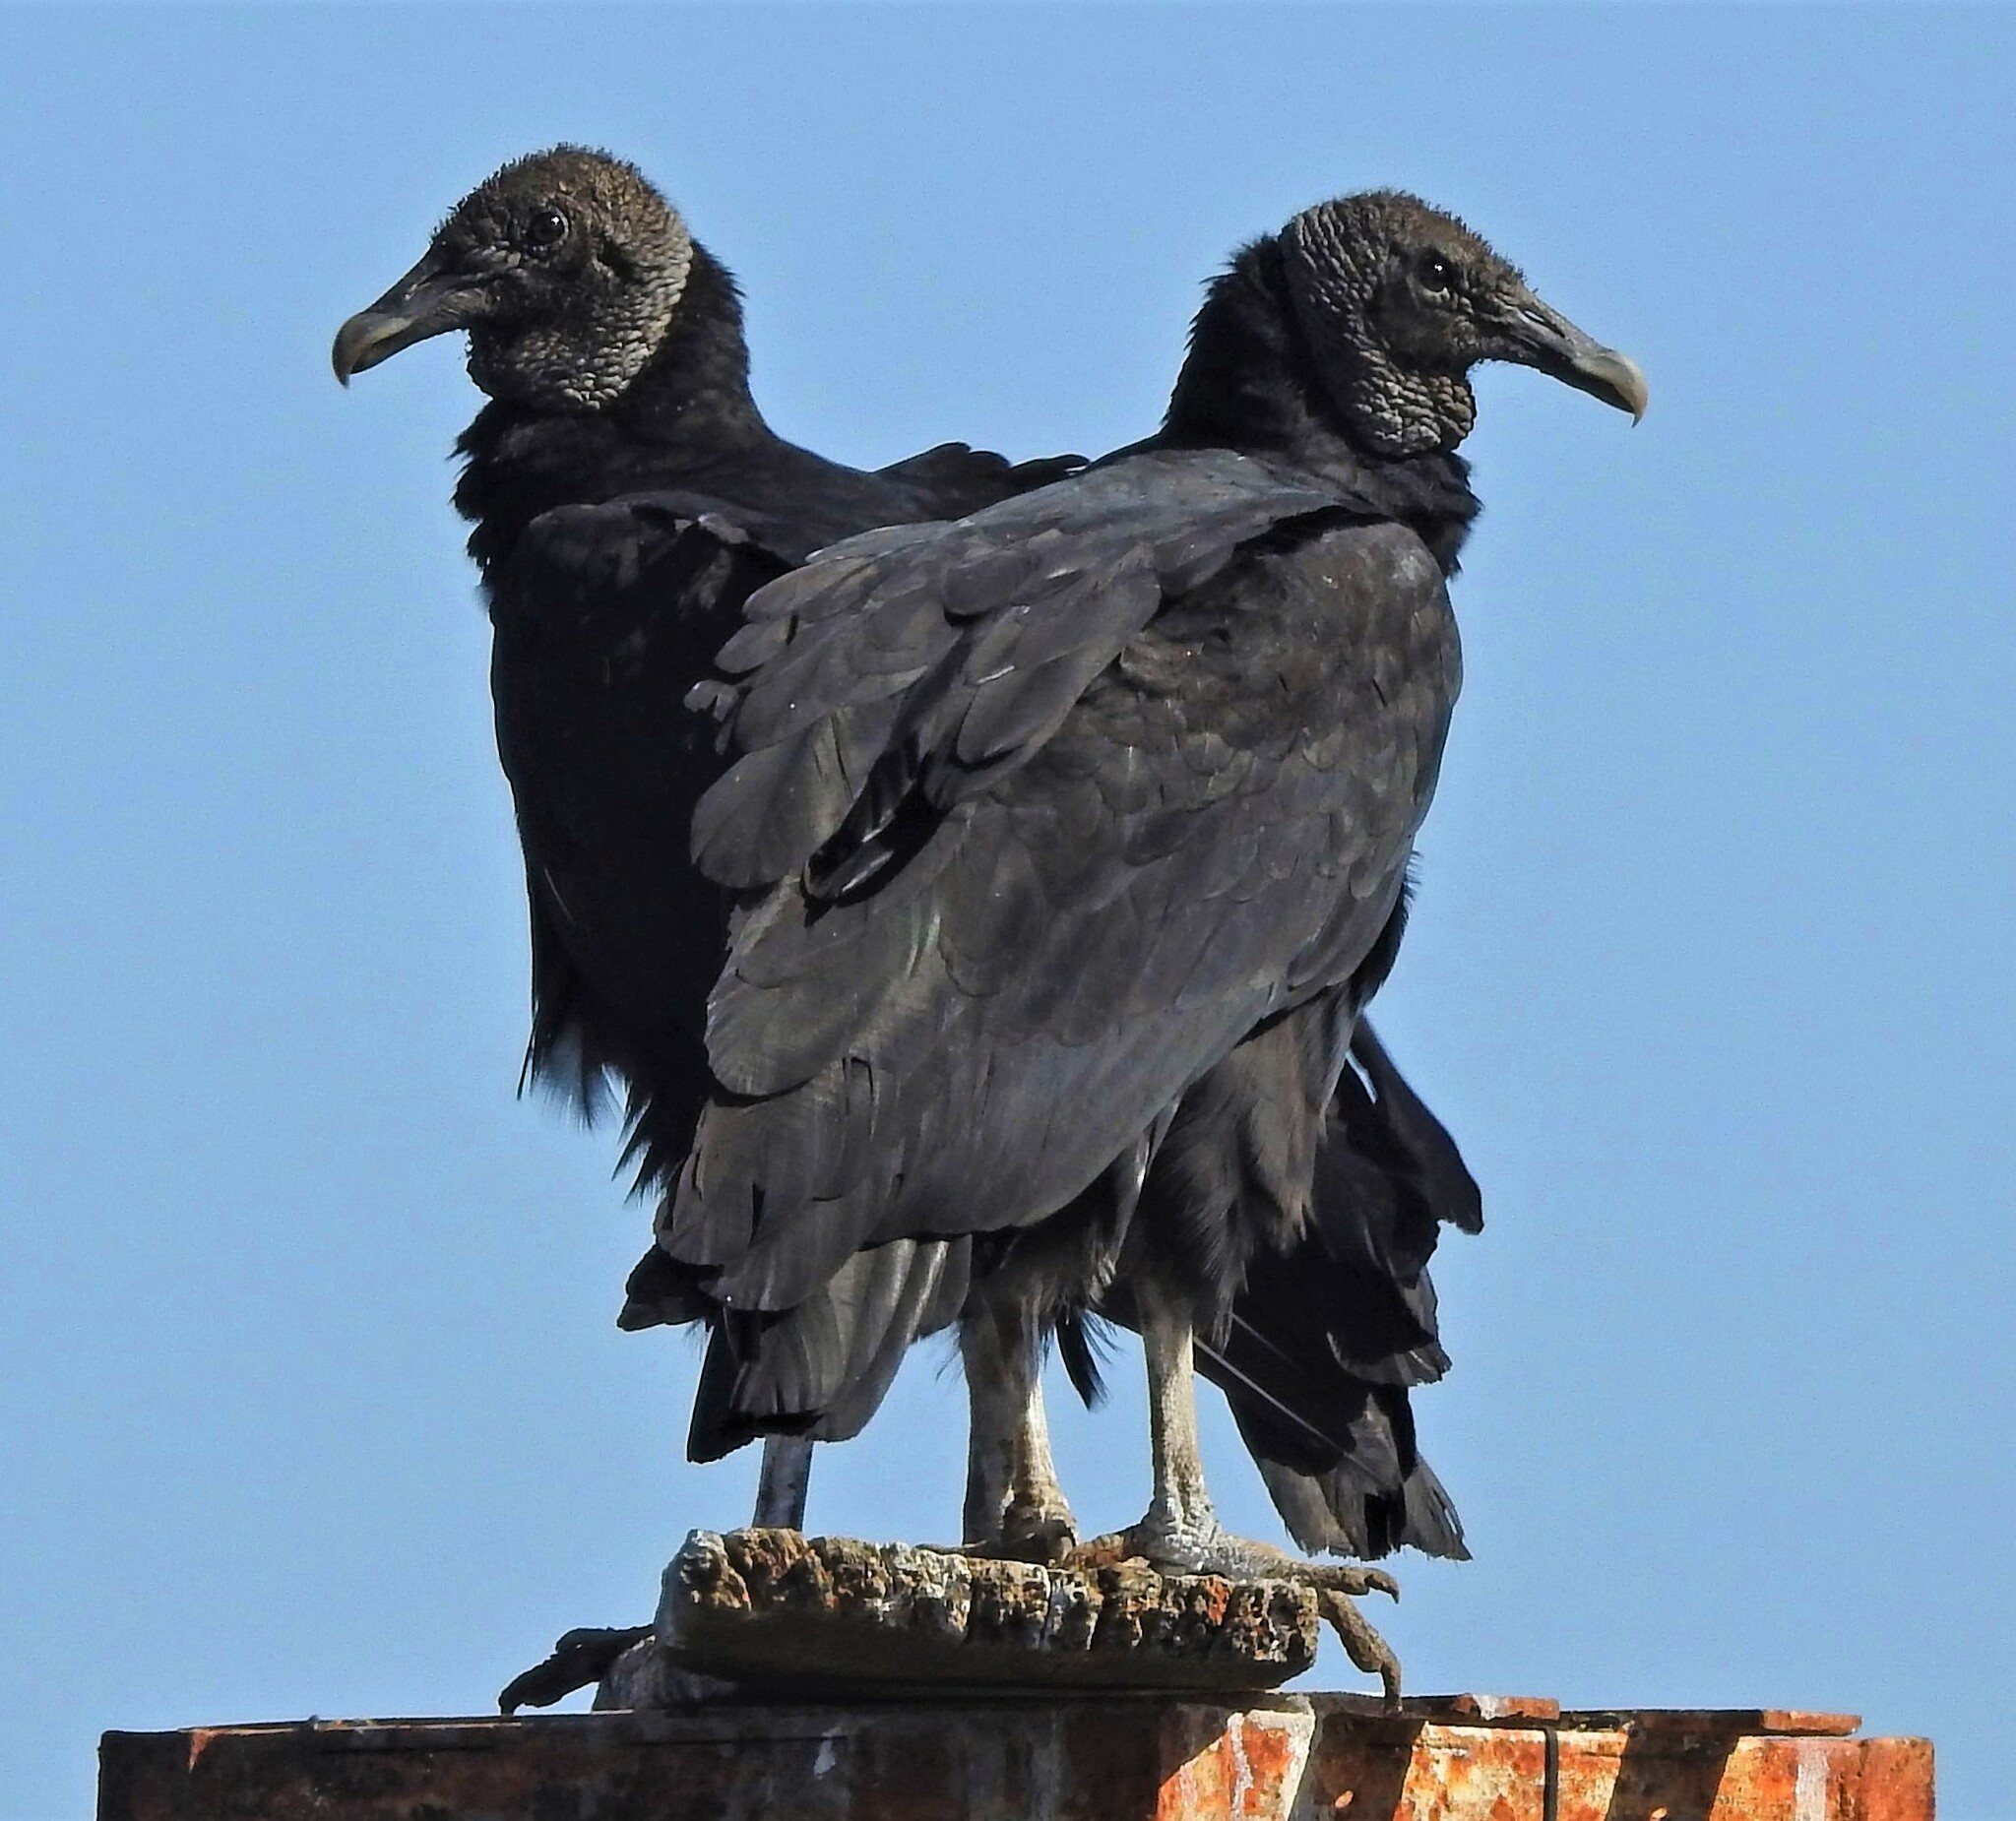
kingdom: Animalia
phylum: Chordata
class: Aves
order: Accipitriformes
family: Cathartidae
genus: Coragyps
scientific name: Coragyps atratus
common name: Black vulture
